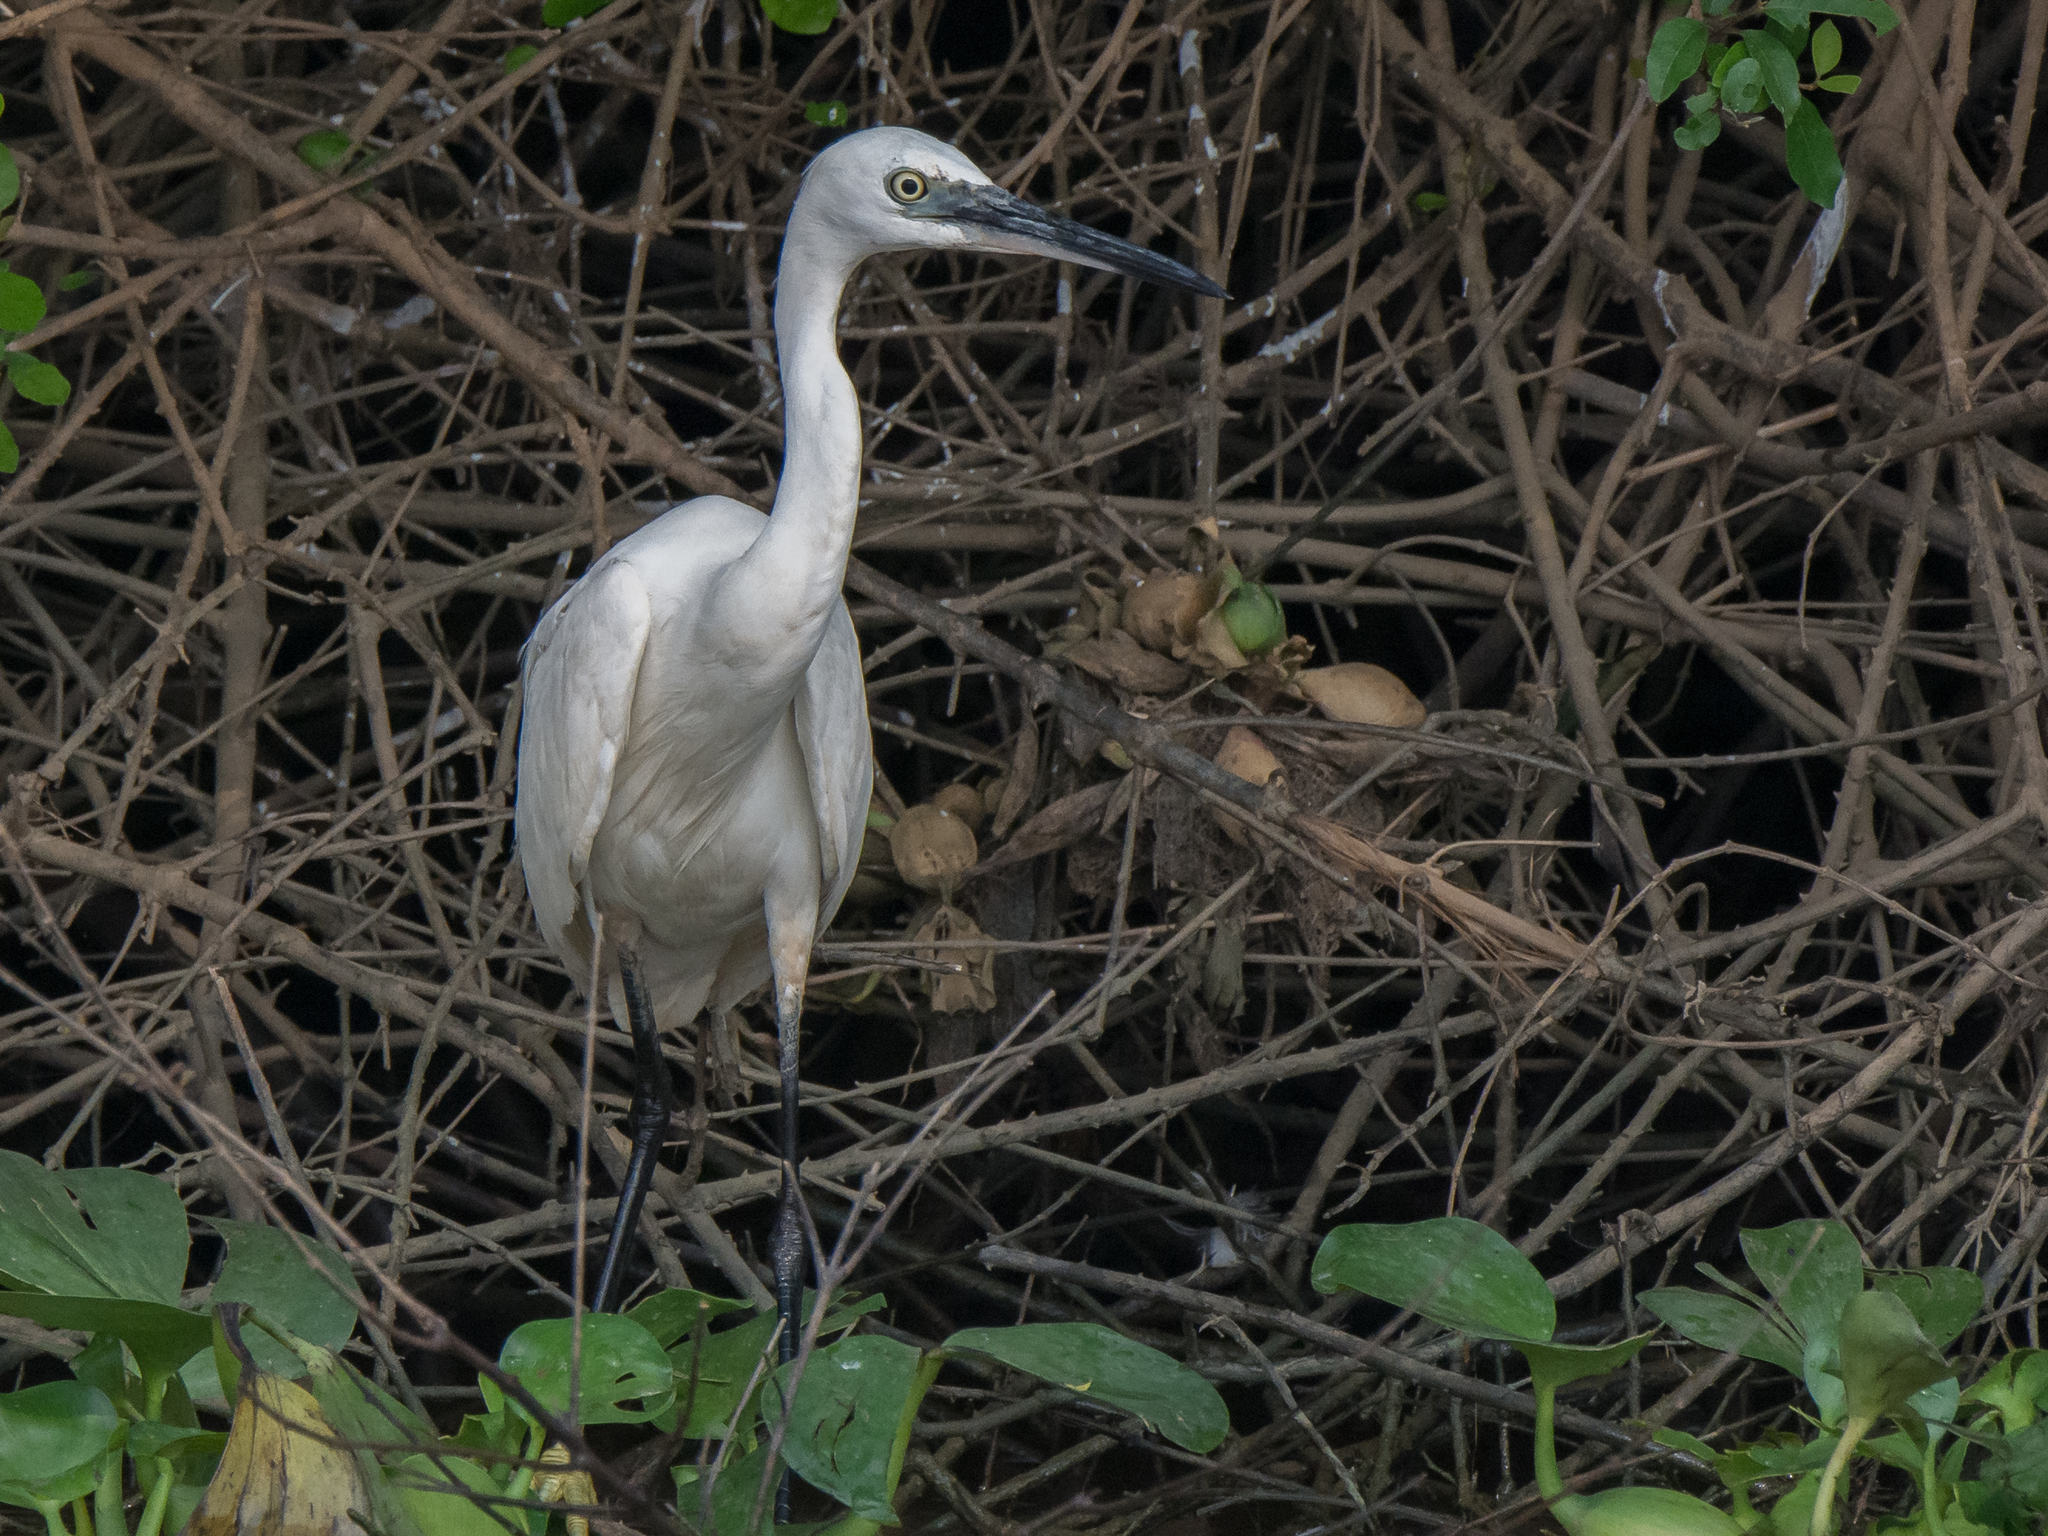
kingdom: Animalia
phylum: Chordata
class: Aves
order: Pelecaniformes
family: Ardeidae
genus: Egretta
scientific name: Egretta garzetta
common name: Little egret
